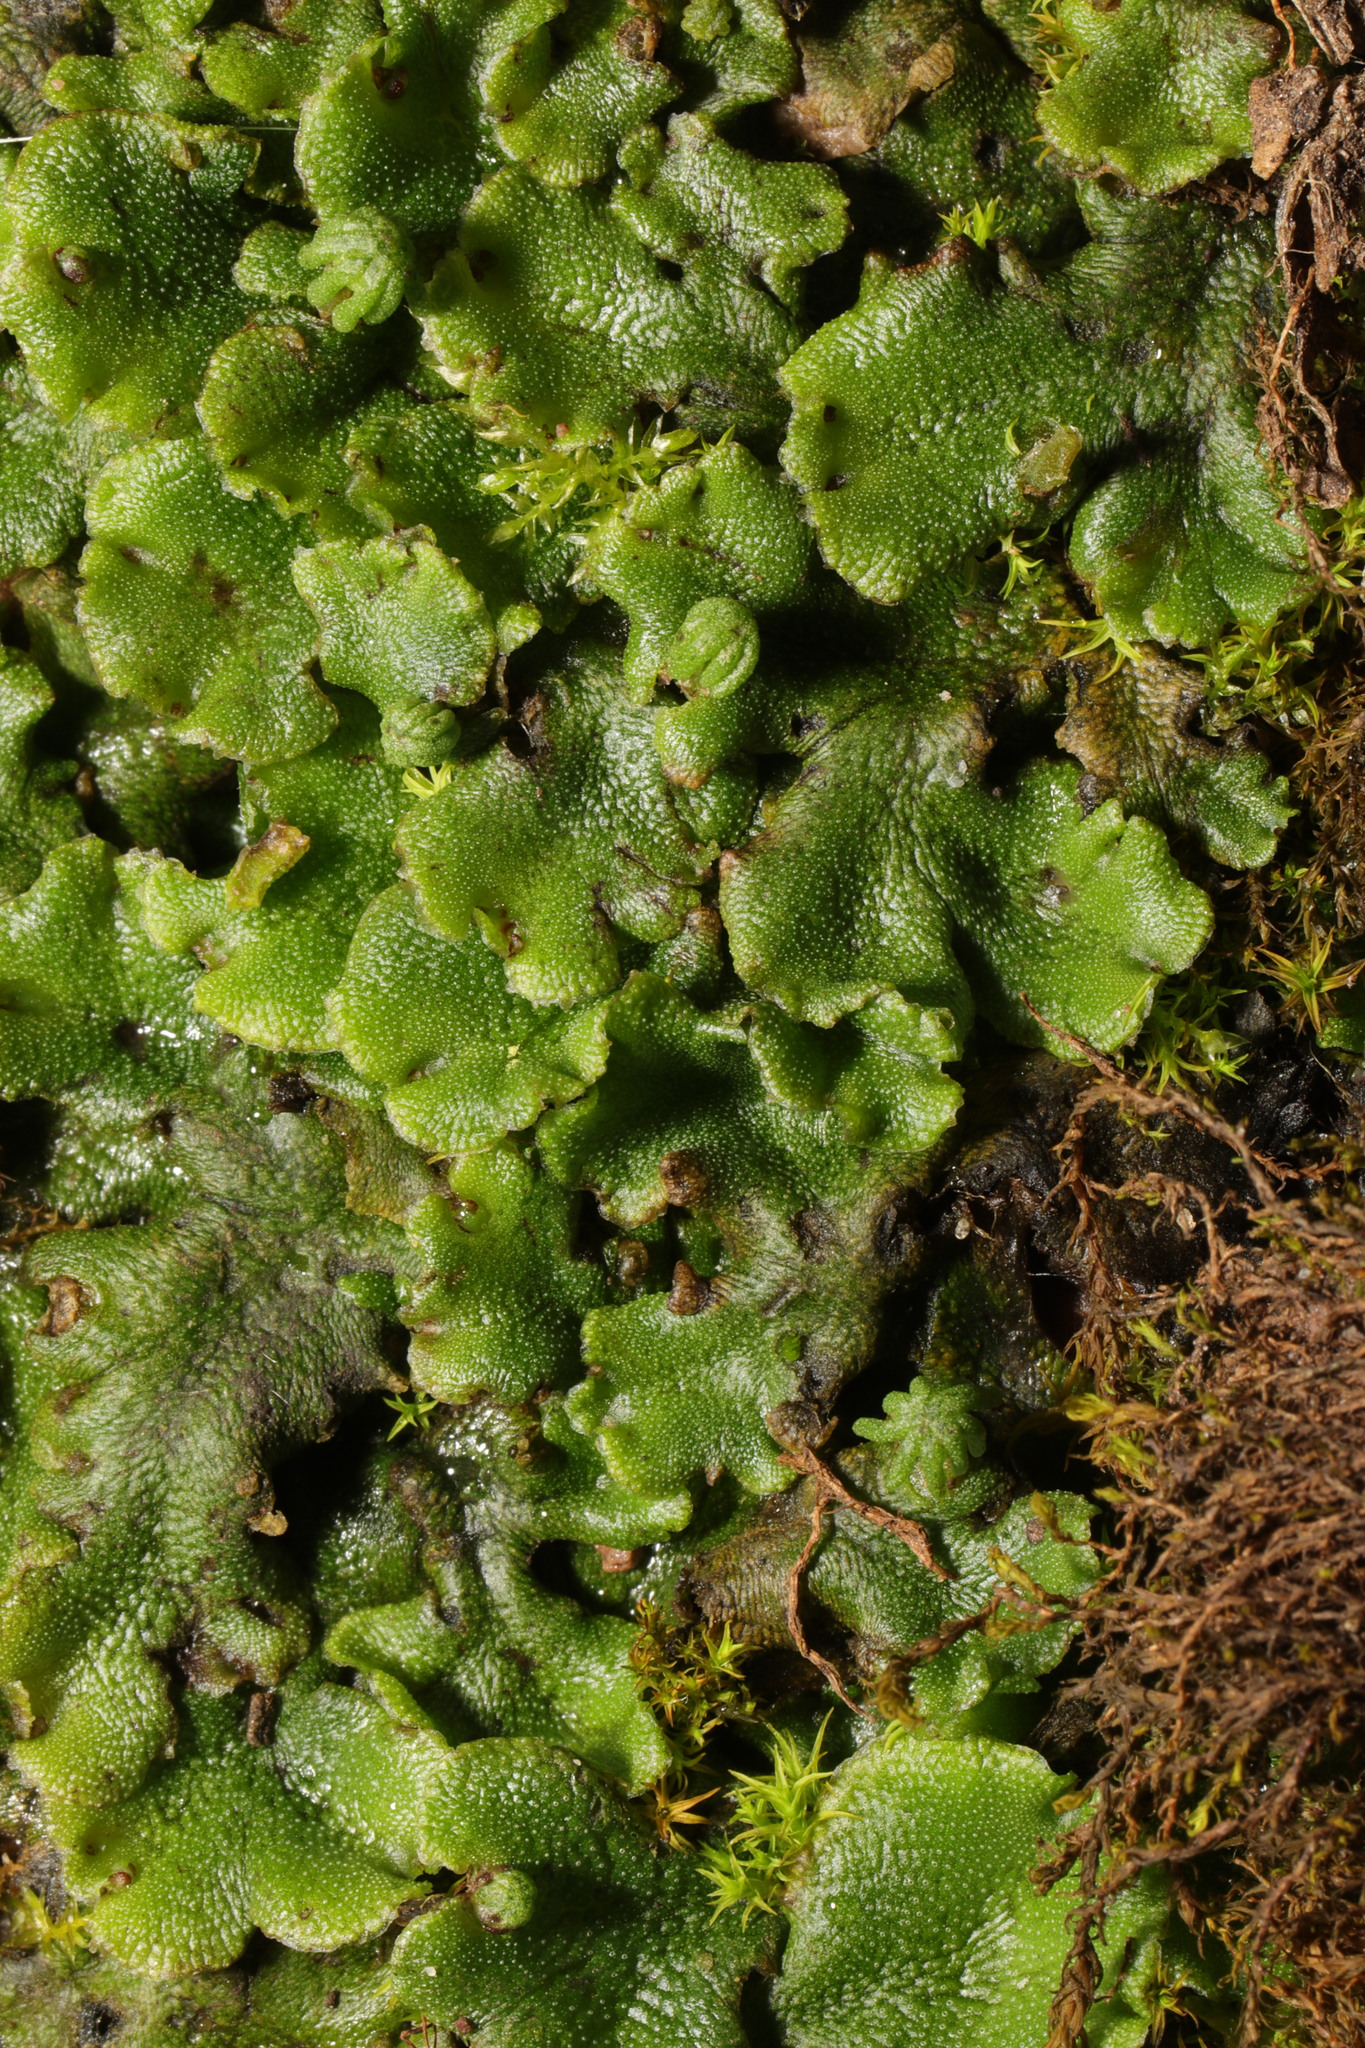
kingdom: Plantae
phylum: Marchantiophyta
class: Marchantiopsida
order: Marchantiales
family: Marchantiaceae
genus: Marchantia
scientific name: Marchantia polymorpha
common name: Common liverwort
